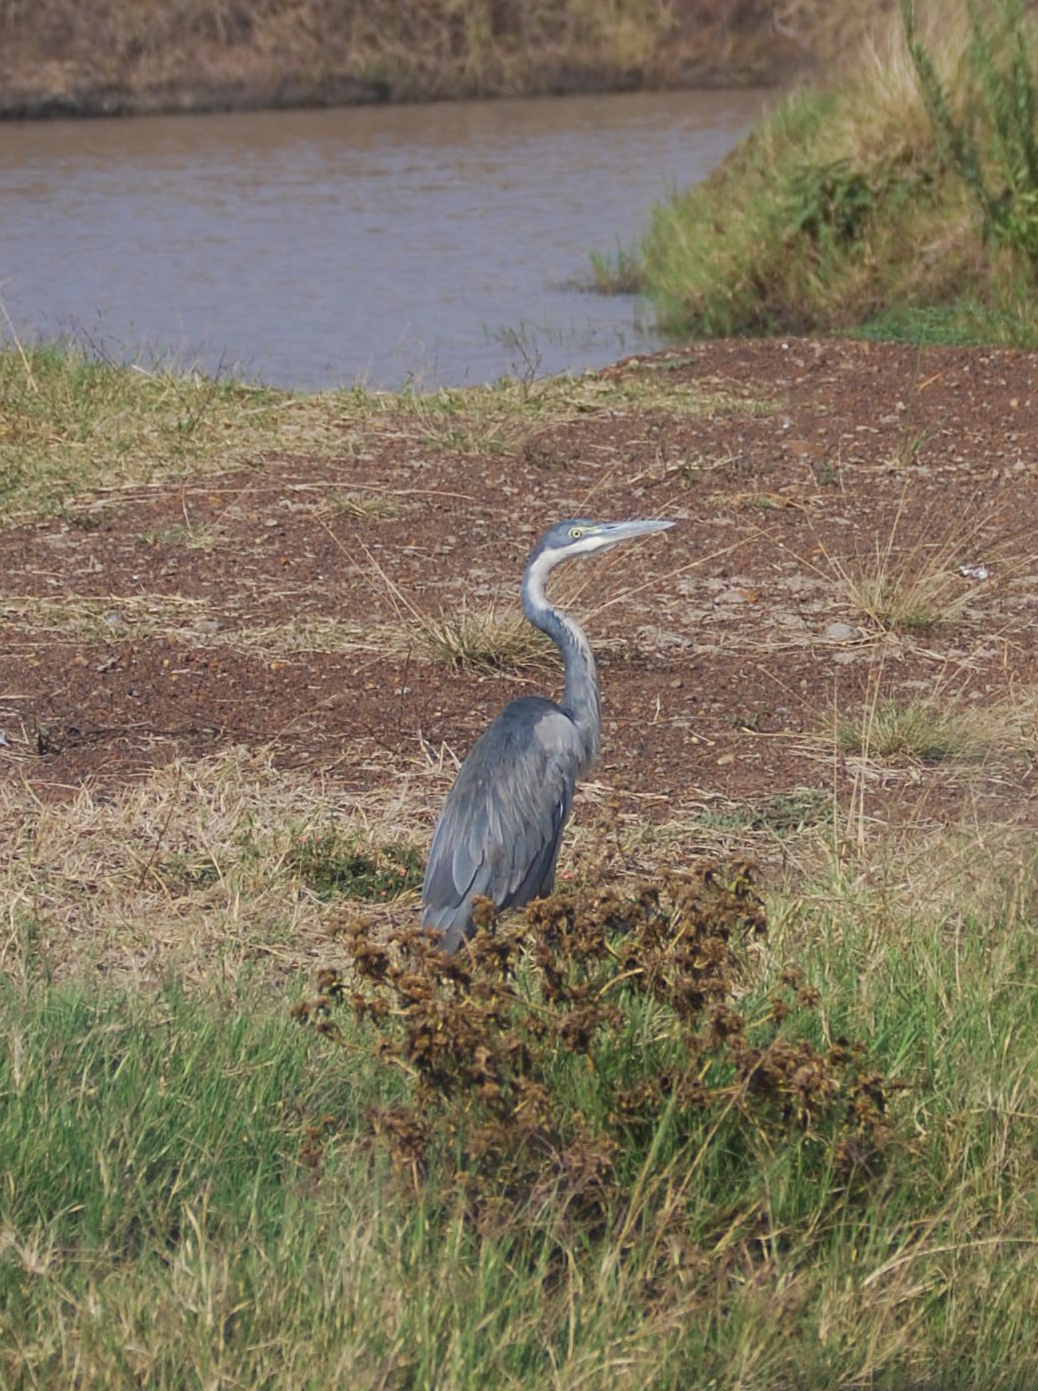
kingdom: Animalia
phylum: Chordata
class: Aves
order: Pelecaniformes
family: Ardeidae
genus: Ardea
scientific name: Ardea melanocephala
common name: Black-headed heron
